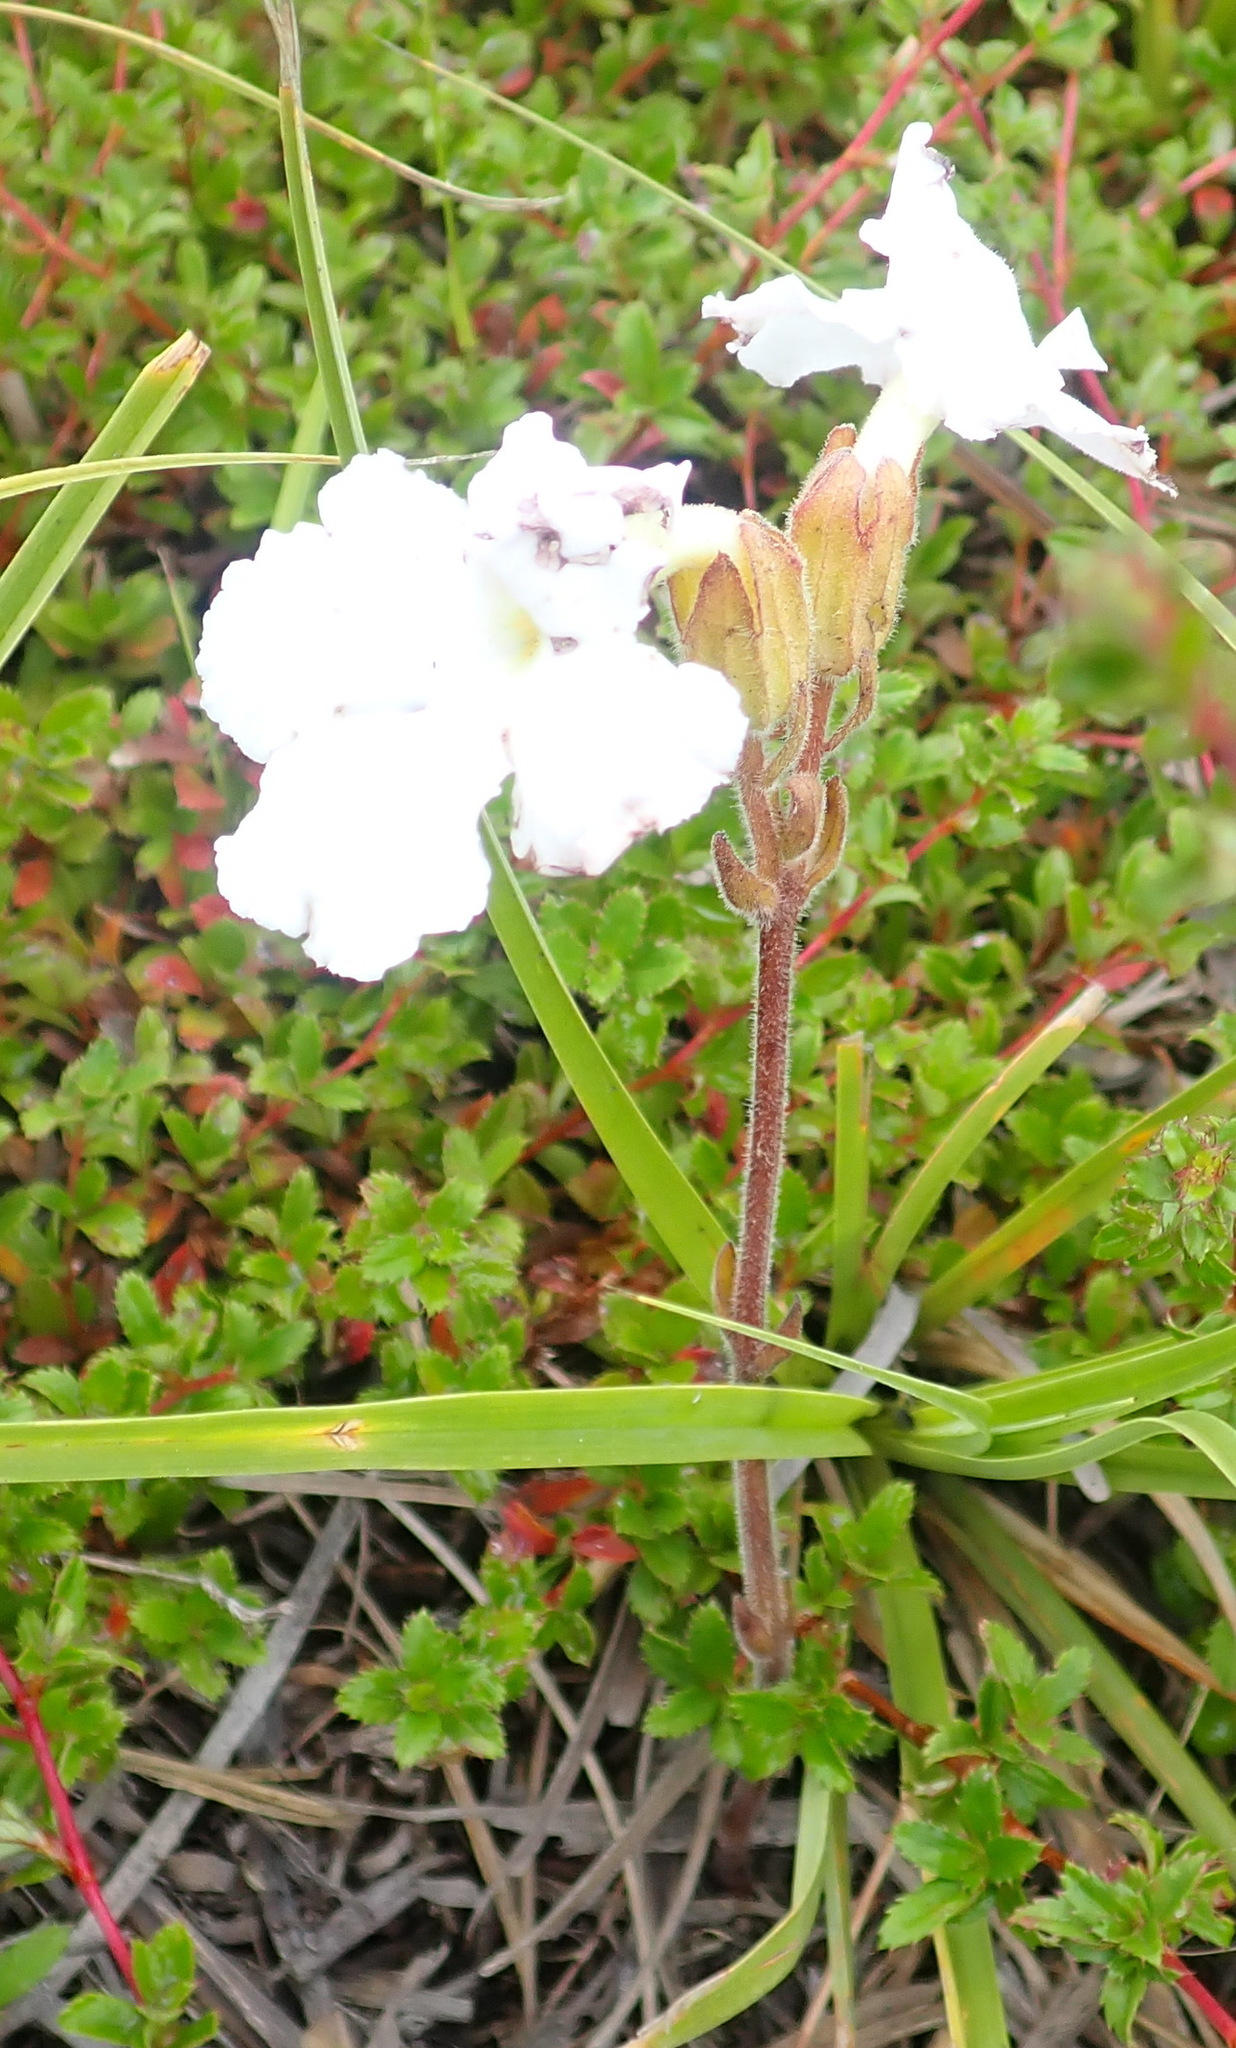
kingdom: Plantae
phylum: Tracheophyta
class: Magnoliopsida
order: Lamiales
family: Orobanchaceae
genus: Harveya
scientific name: Harveya capensis
